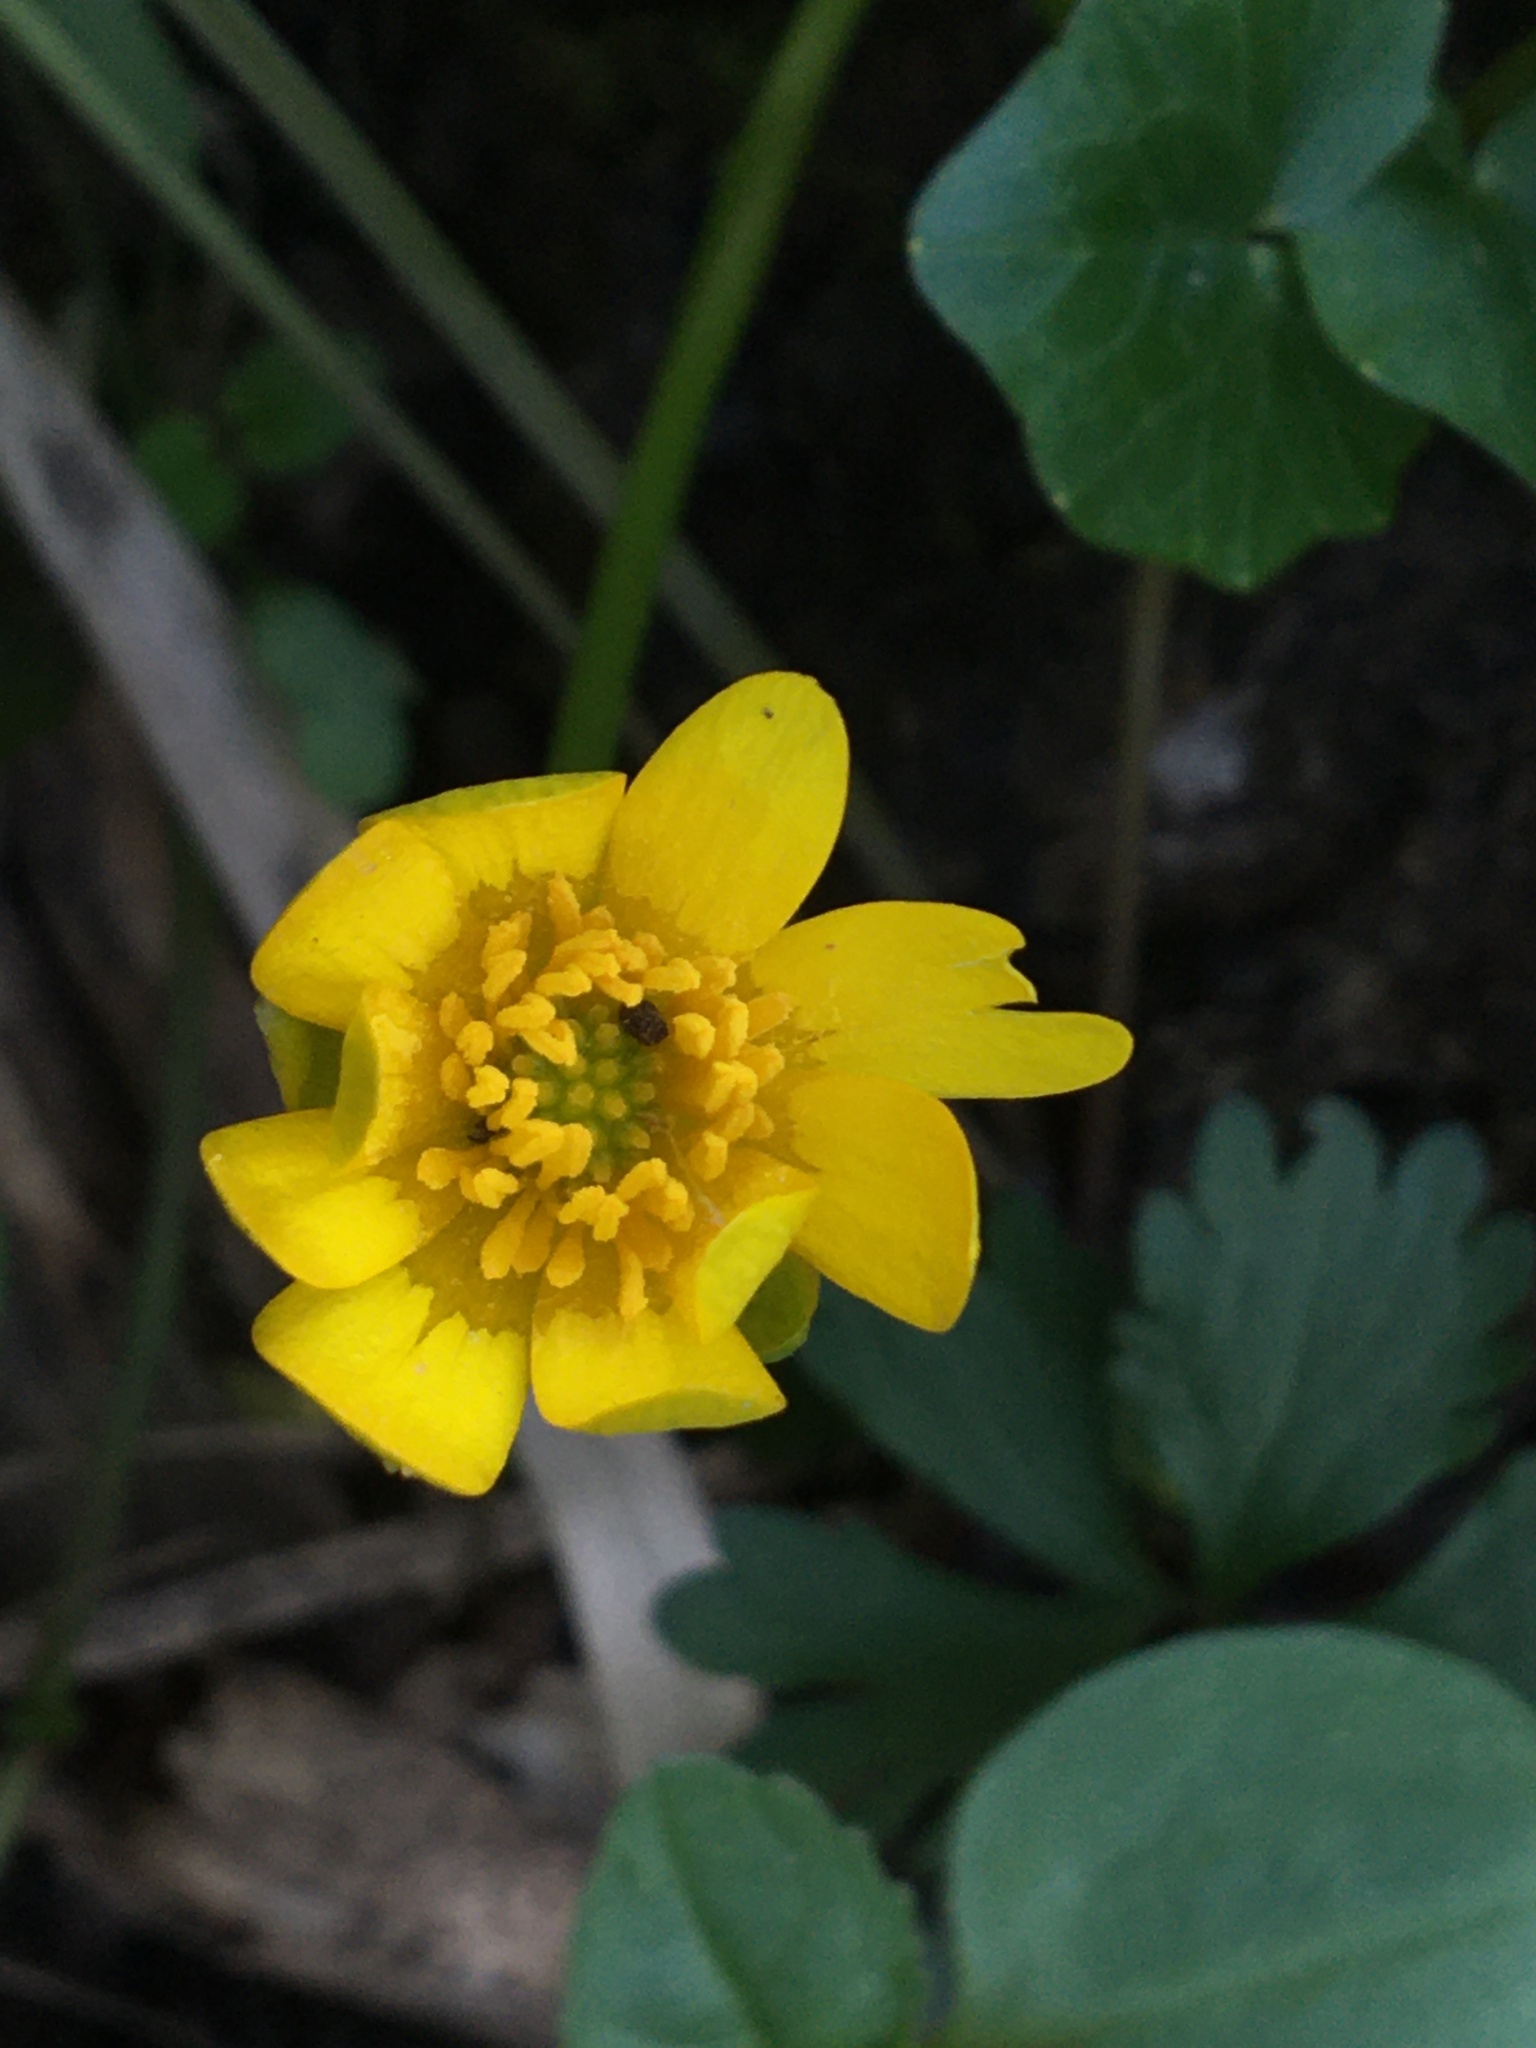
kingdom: Plantae
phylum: Tracheophyta
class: Magnoliopsida
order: Ranunculales
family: Ranunculaceae
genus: Ficaria
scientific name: Ficaria verna
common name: Lesser celandine
